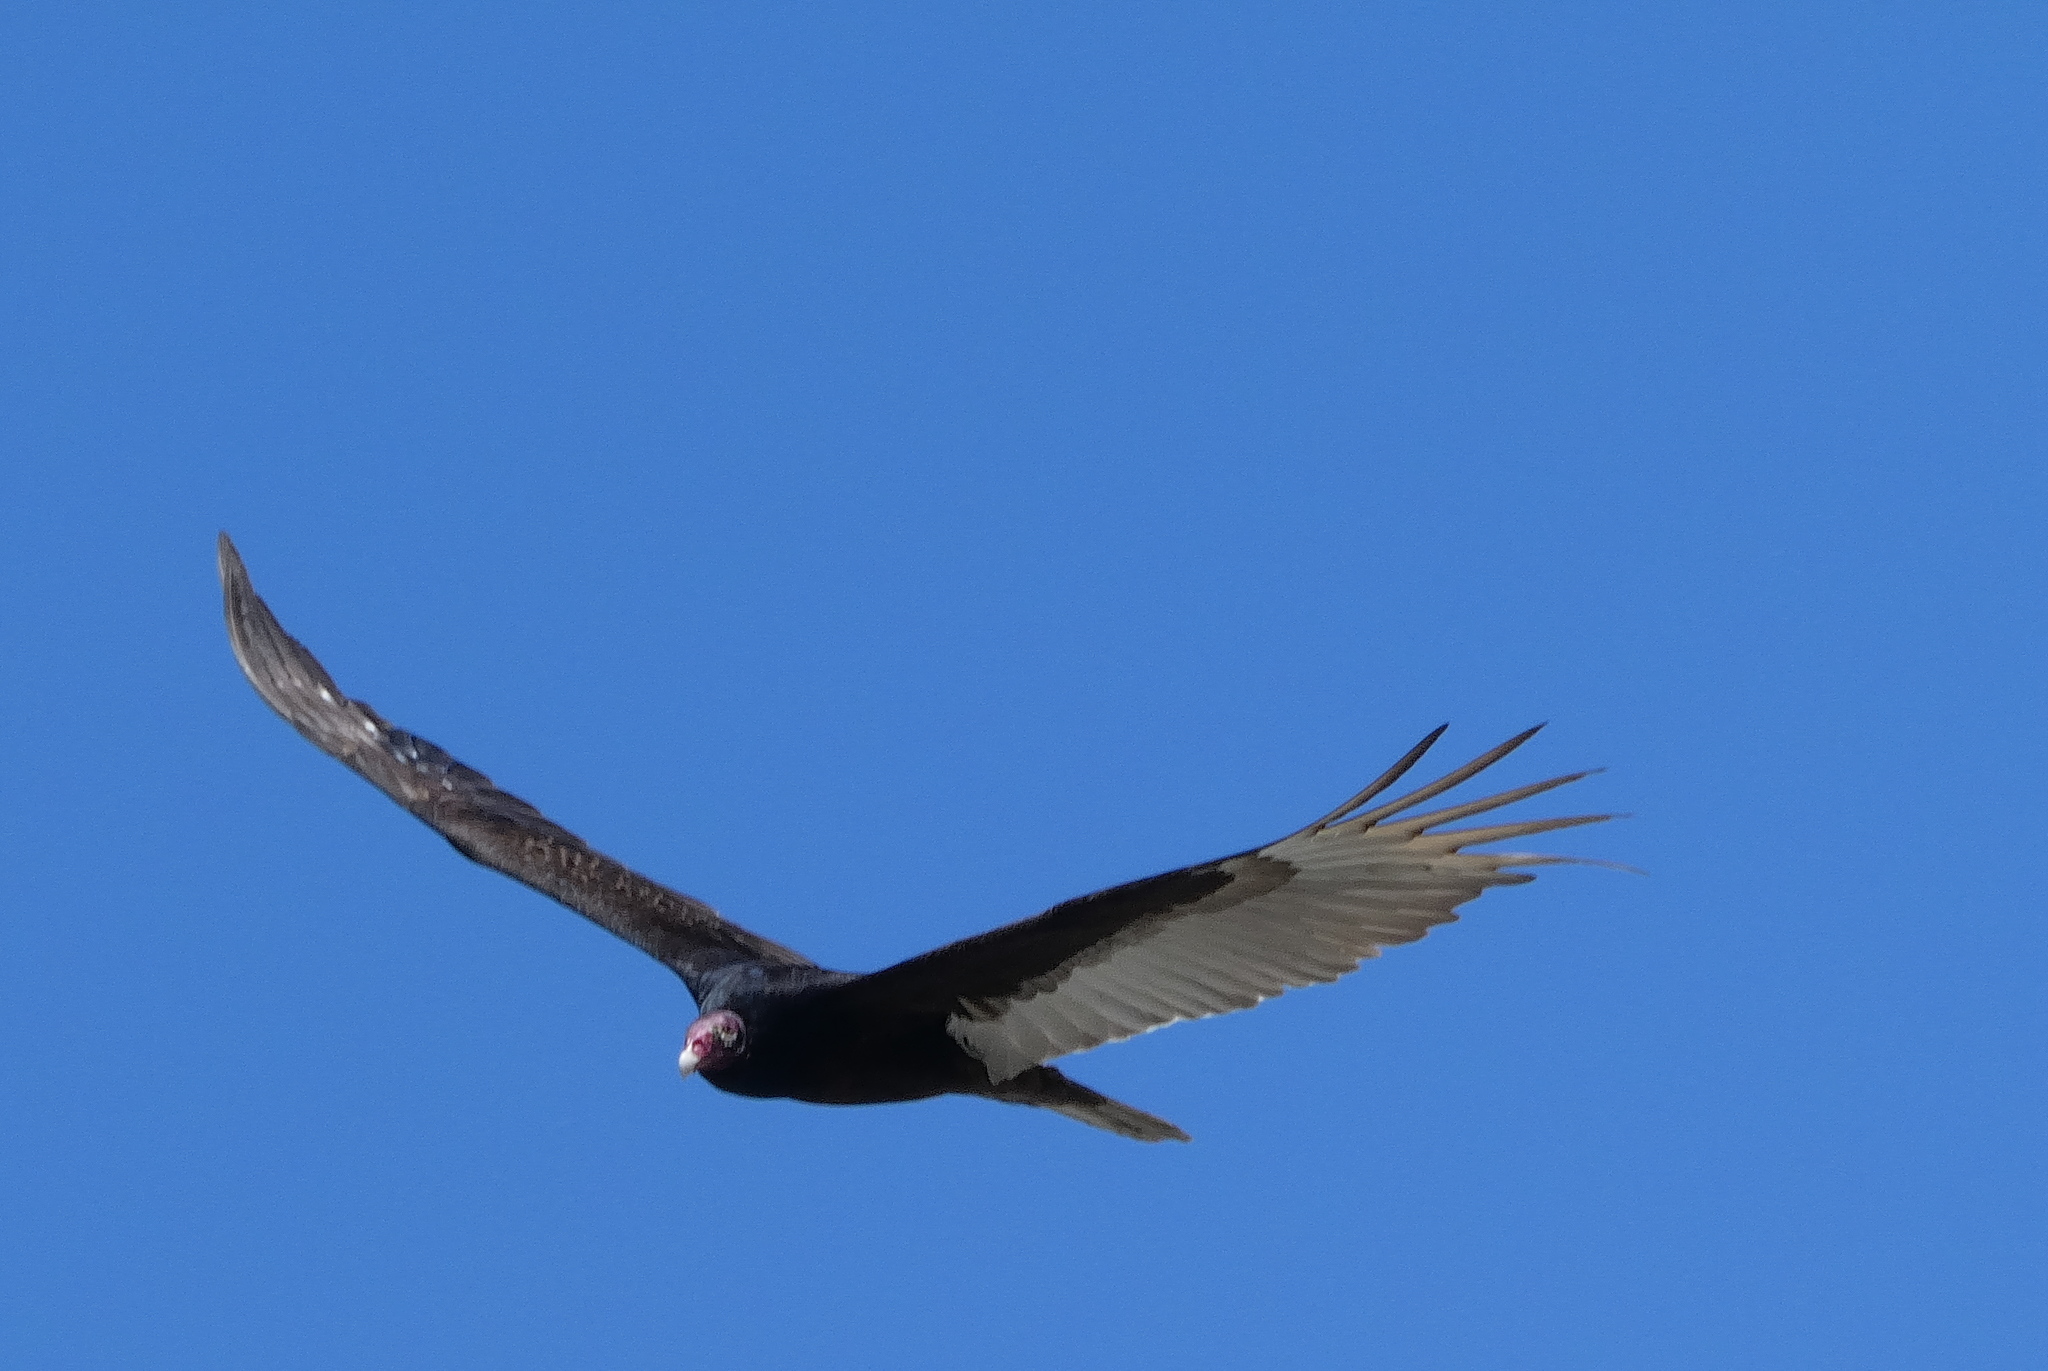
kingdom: Animalia
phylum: Chordata
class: Aves
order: Accipitriformes
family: Cathartidae
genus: Cathartes
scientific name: Cathartes aura
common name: Turkey vulture
